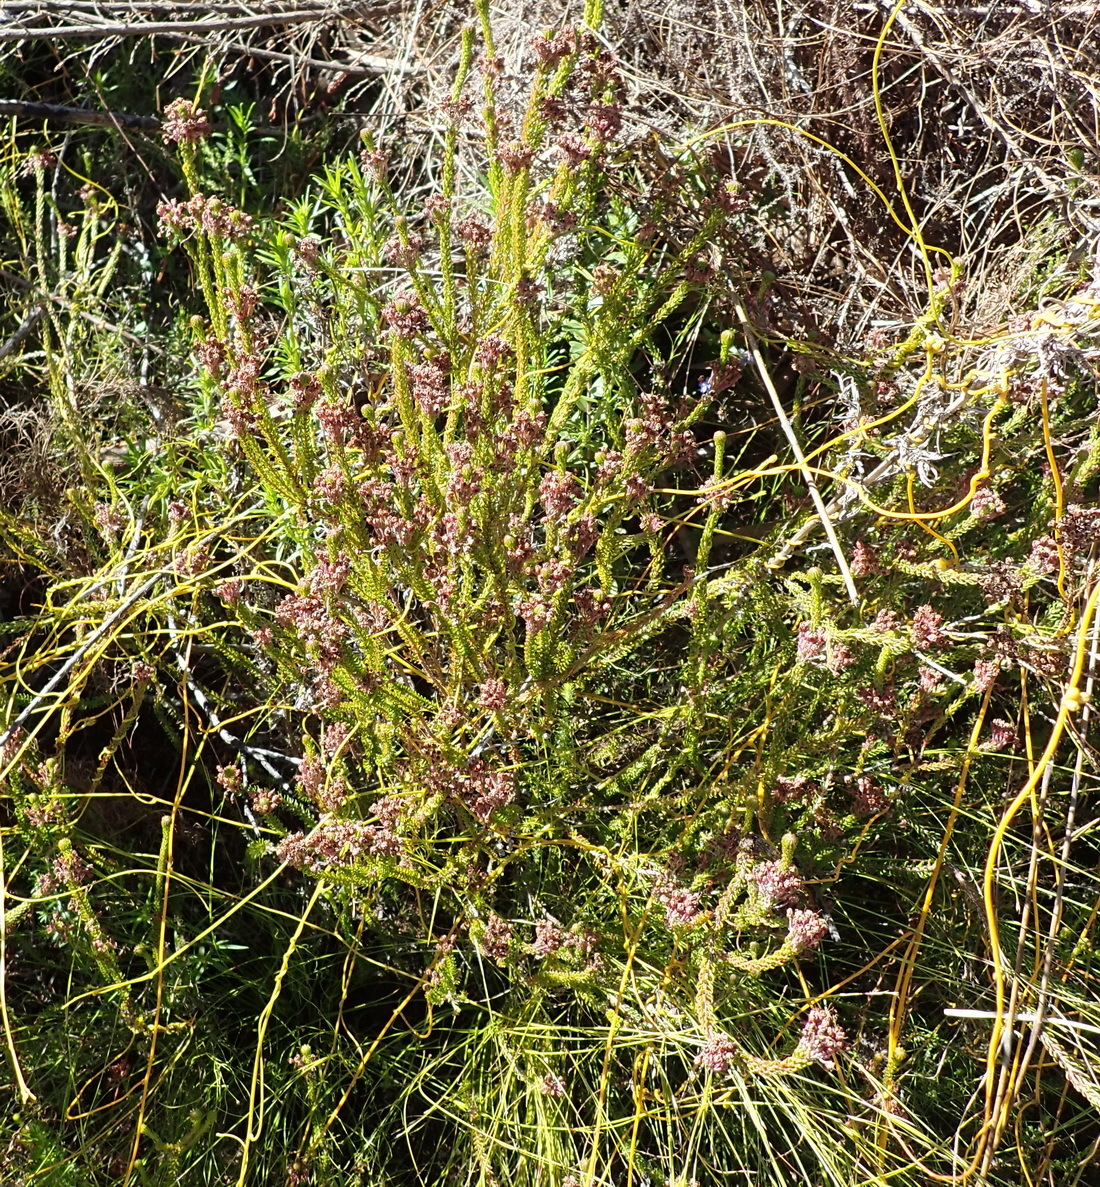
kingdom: Plantae
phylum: Tracheophyta
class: Magnoliopsida
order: Ericales
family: Ericaceae
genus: Erica
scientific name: Erica seriphiifolia
